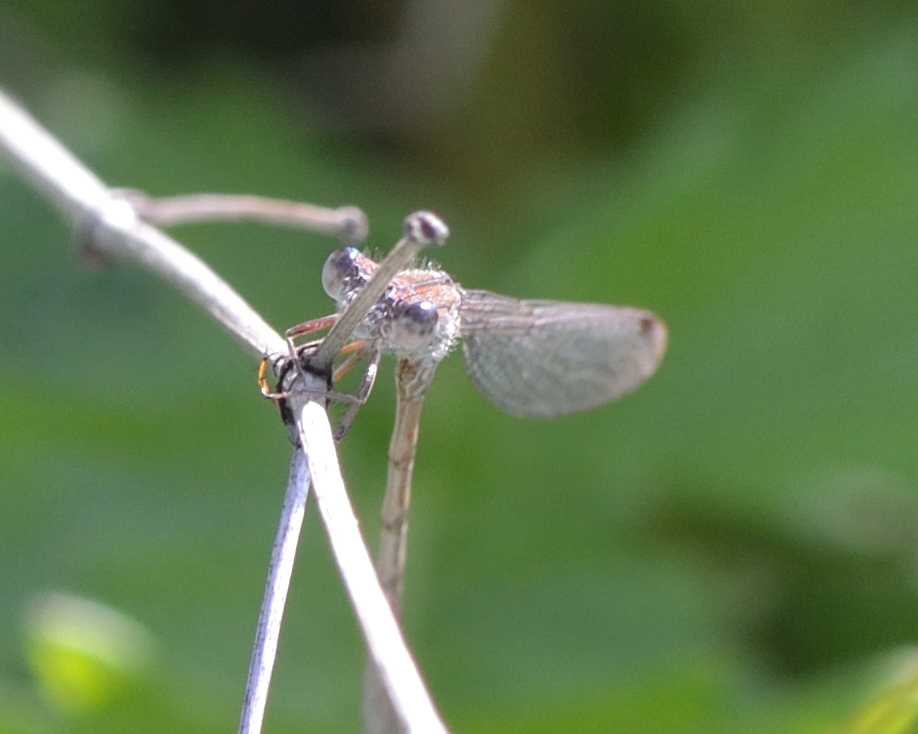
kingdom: Animalia
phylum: Arthropoda
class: Insecta
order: Odonata
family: Lestidae
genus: Sympecma
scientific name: Sympecma paedisca
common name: Siberian winter damsel
